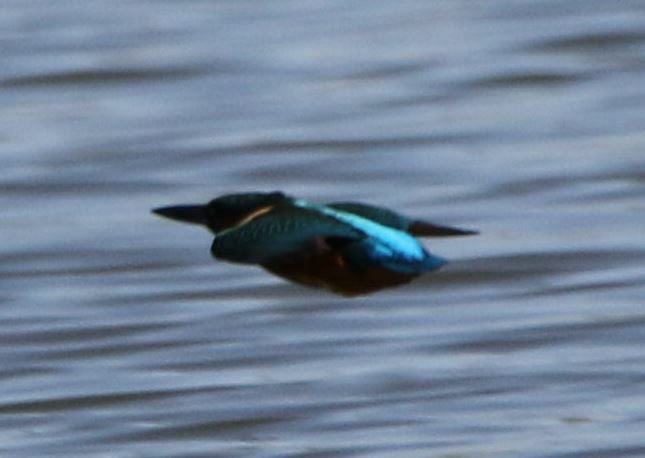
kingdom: Animalia
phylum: Chordata
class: Aves
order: Coraciiformes
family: Alcedinidae
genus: Alcedo
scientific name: Alcedo atthis
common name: Common kingfisher
